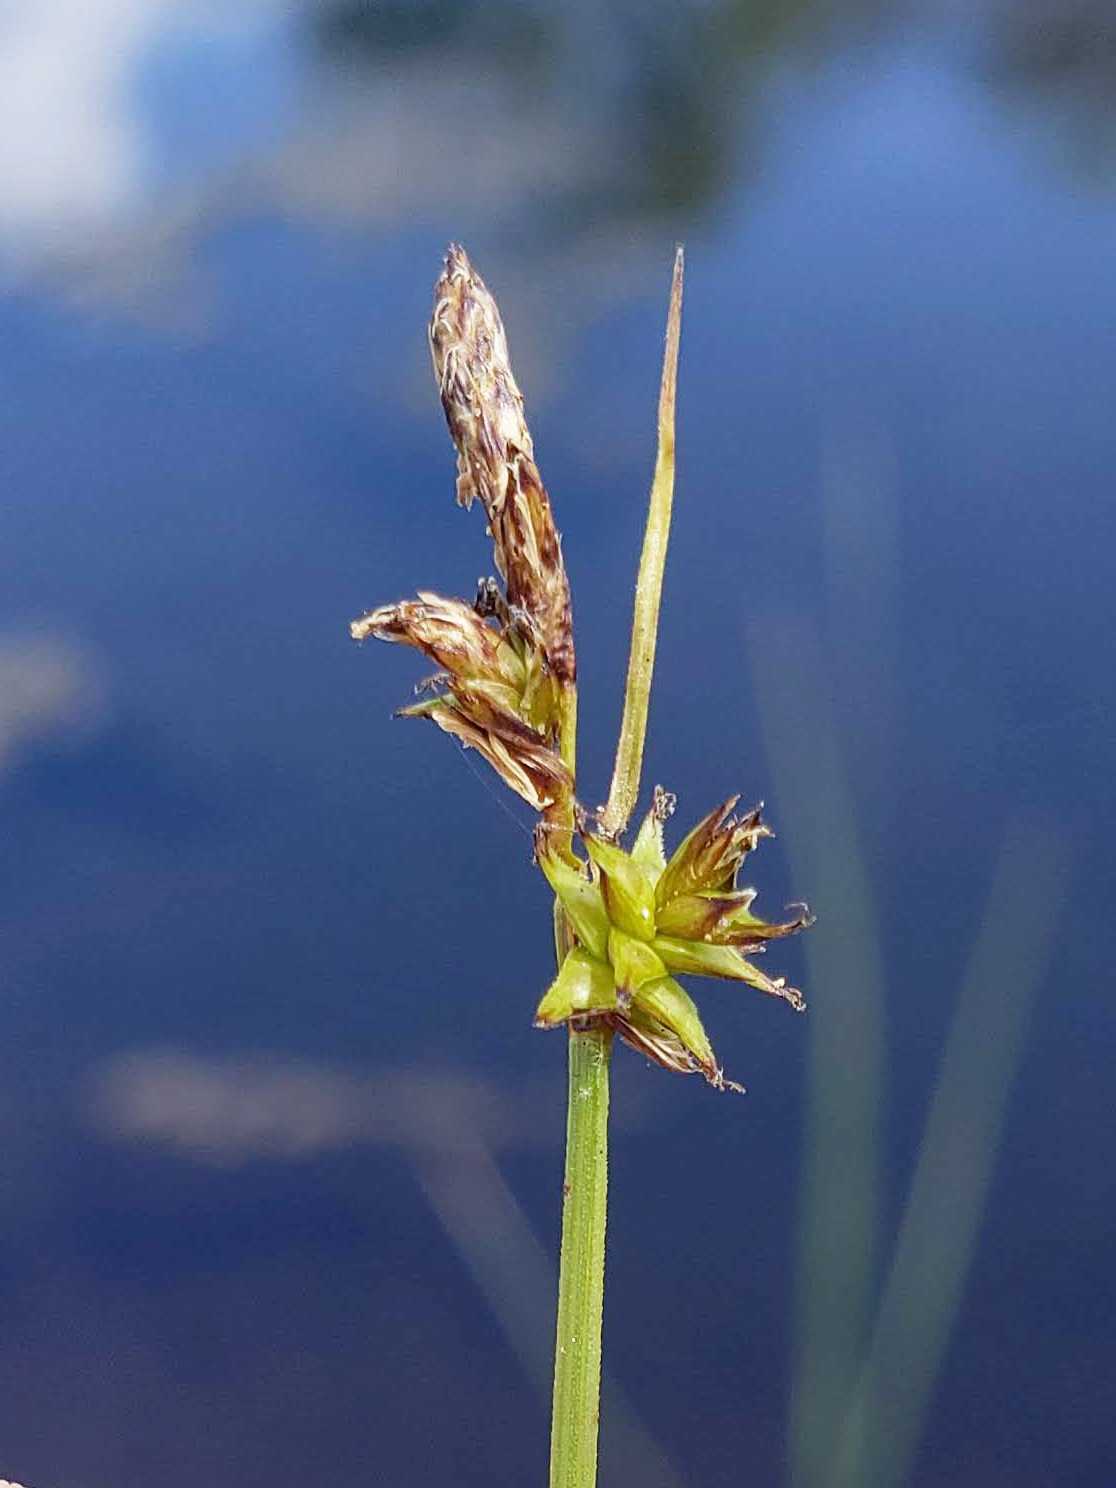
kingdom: Plantae
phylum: Tracheophyta
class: Liliopsida
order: Poales
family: Cyperaceae
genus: Carex
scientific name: Carex sterilis
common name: Dioecious sedge
